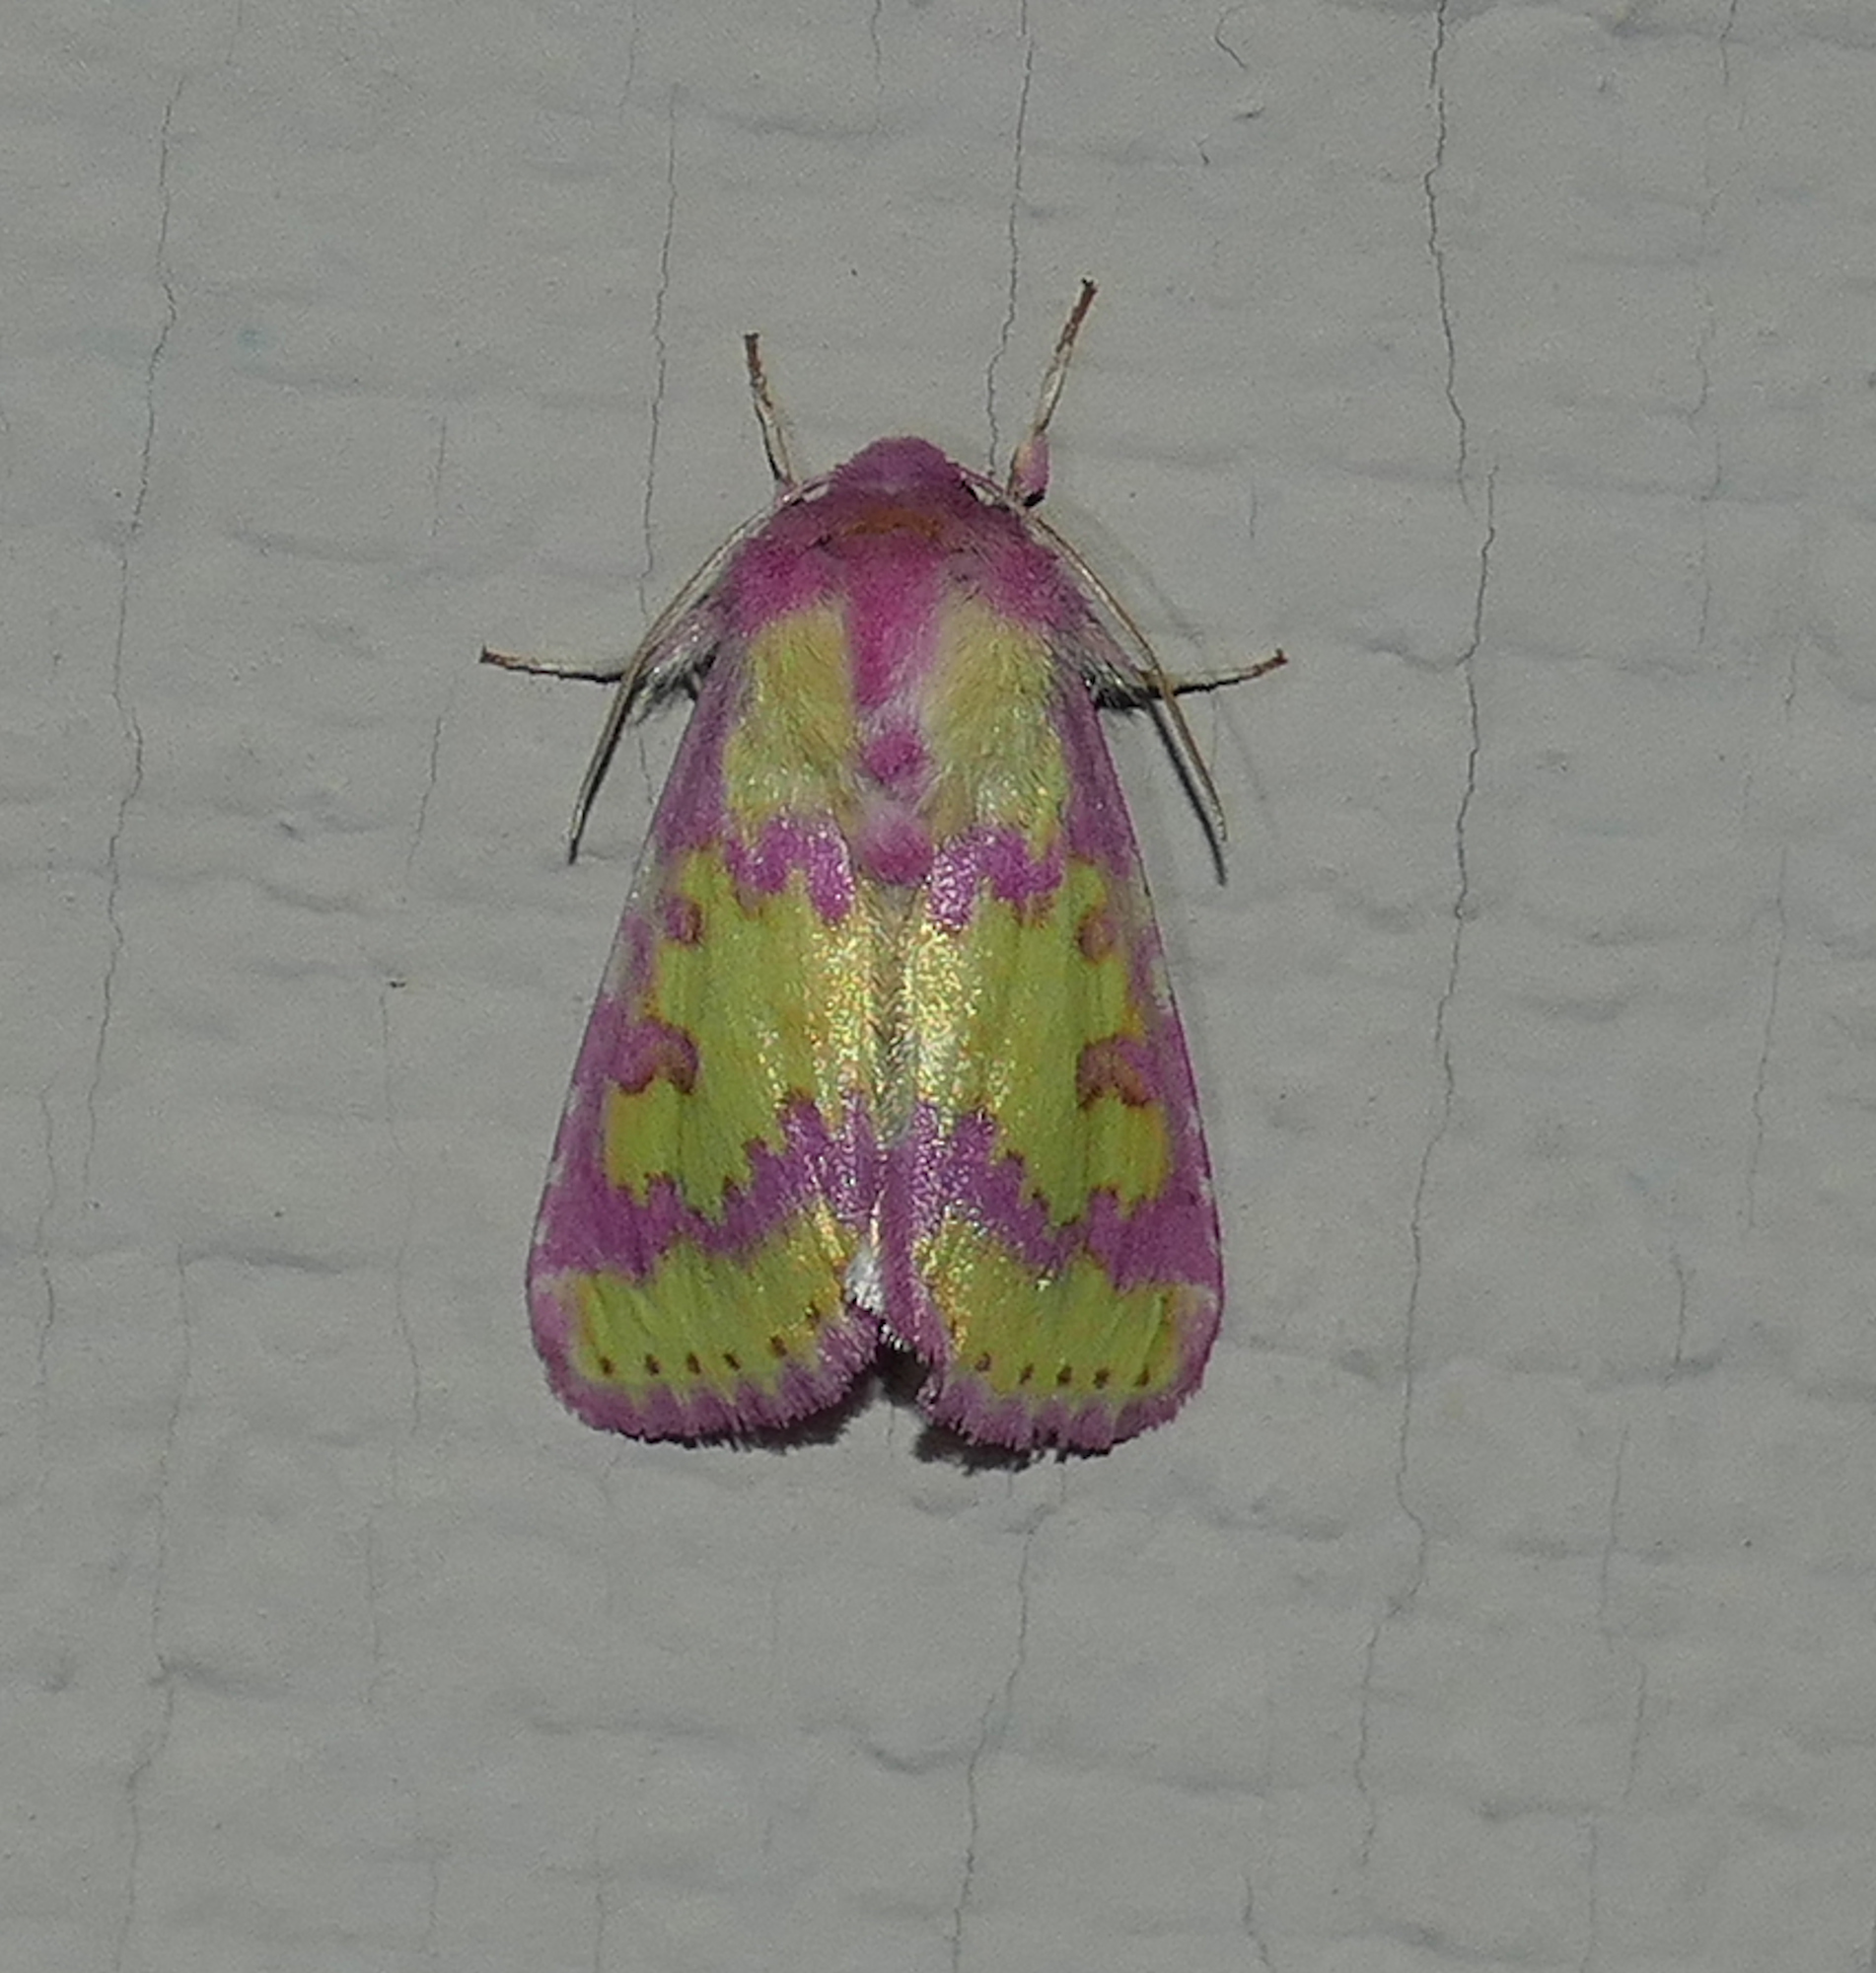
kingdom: Animalia
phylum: Arthropoda
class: Insecta
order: Lepidoptera
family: Noctuidae
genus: Psectrotarsia
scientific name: Psectrotarsia suavis
